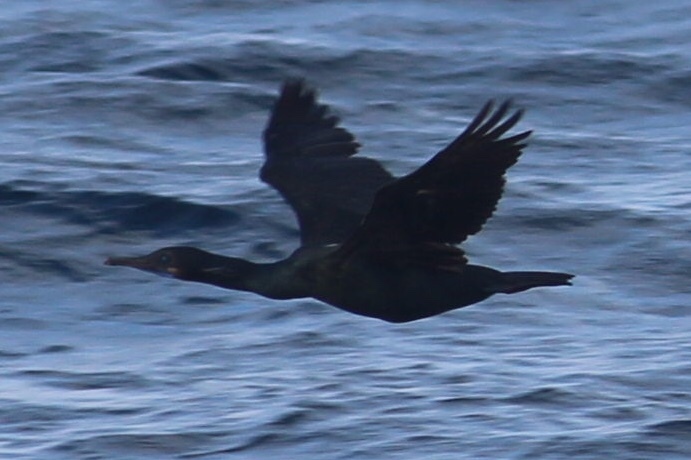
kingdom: Animalia
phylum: Chordata
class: Aves
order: Suliformes
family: Phalacrocoracidae
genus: Urile
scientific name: Urile penicillatus
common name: Brandt's cormorant
